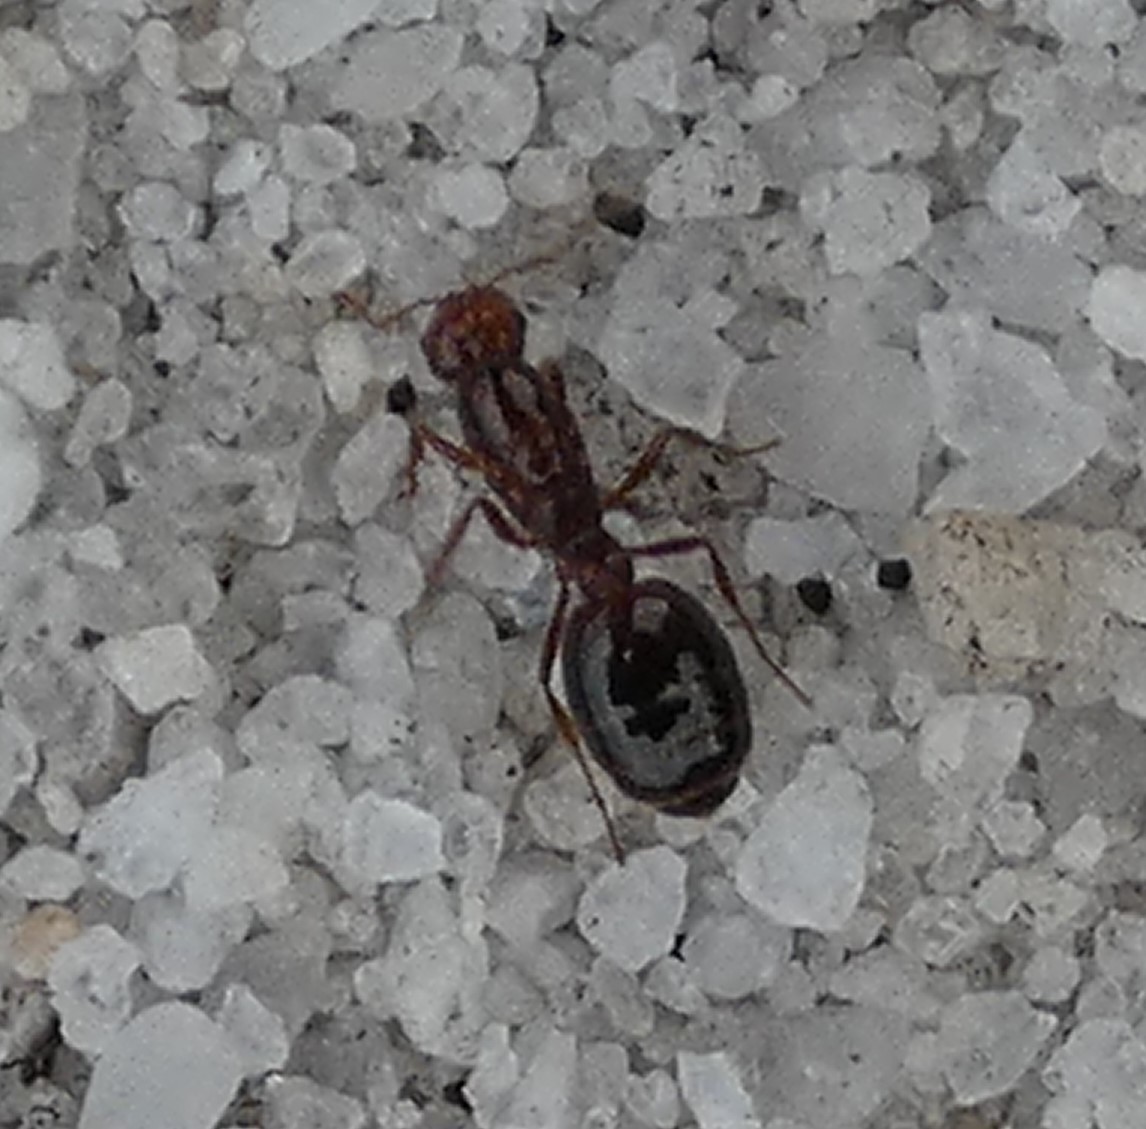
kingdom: Animalia
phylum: Arthropoda
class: Insecta
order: Hymenoptera
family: Formicidae
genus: Solenopsis
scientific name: Solenopsis invicta
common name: Red imported fire ant
